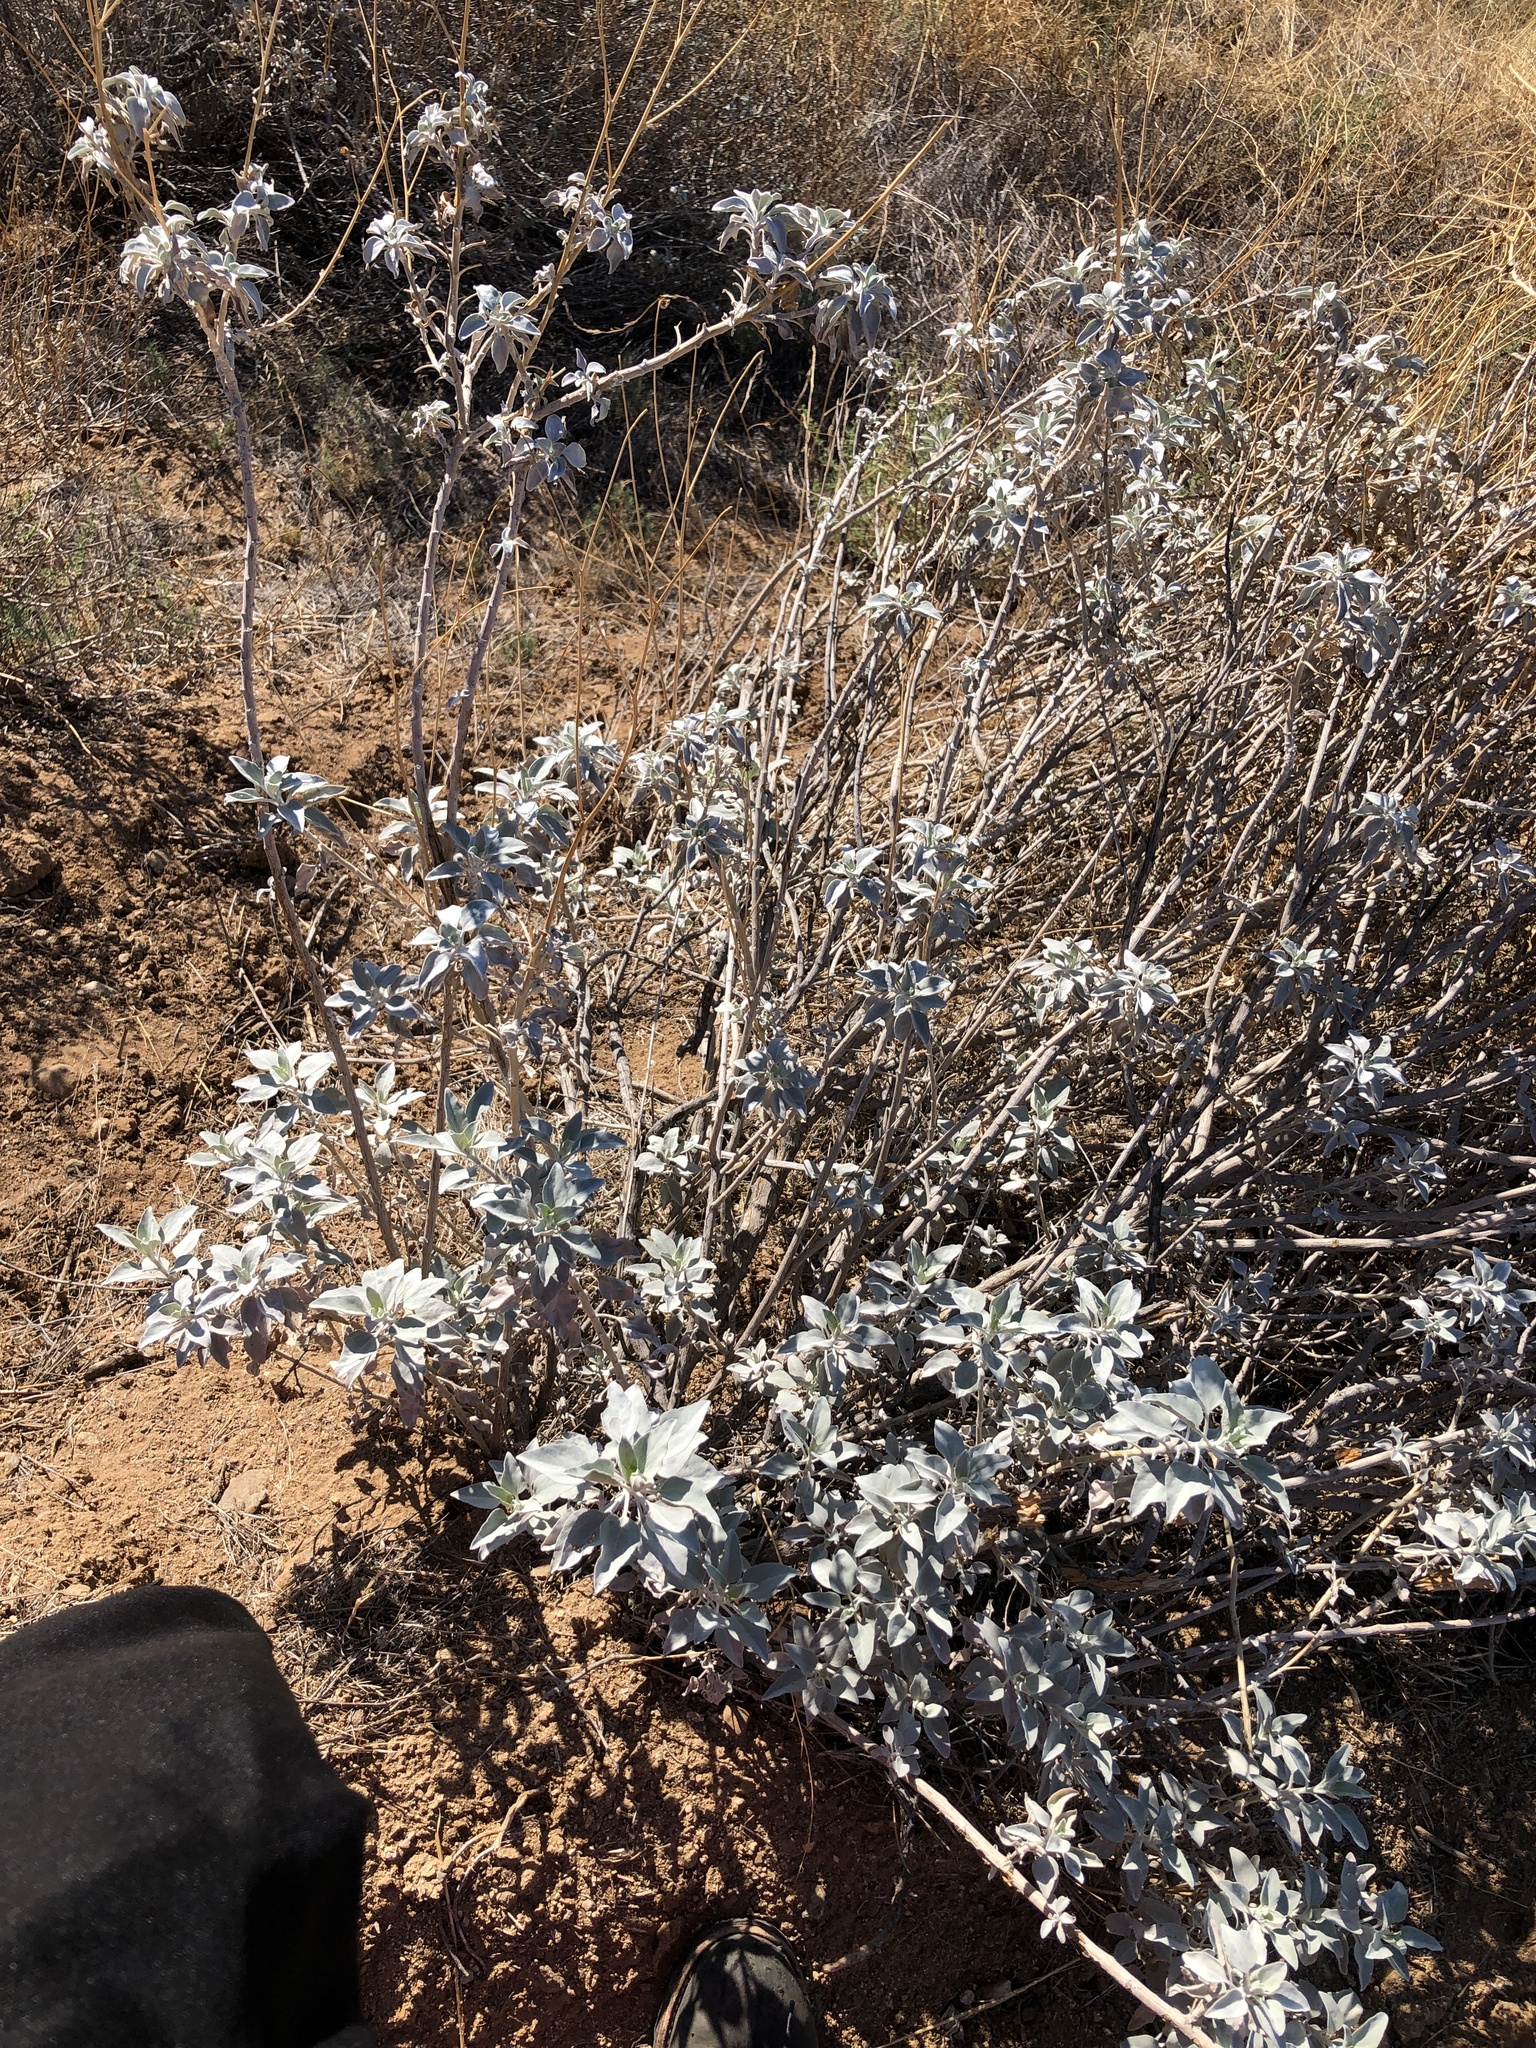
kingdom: Plantae
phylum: Tracheophyta
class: Magnoliopsida
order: Asterales
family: Asteraceae
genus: Encelia
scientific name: Encelia farinosa
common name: Brittlebush
